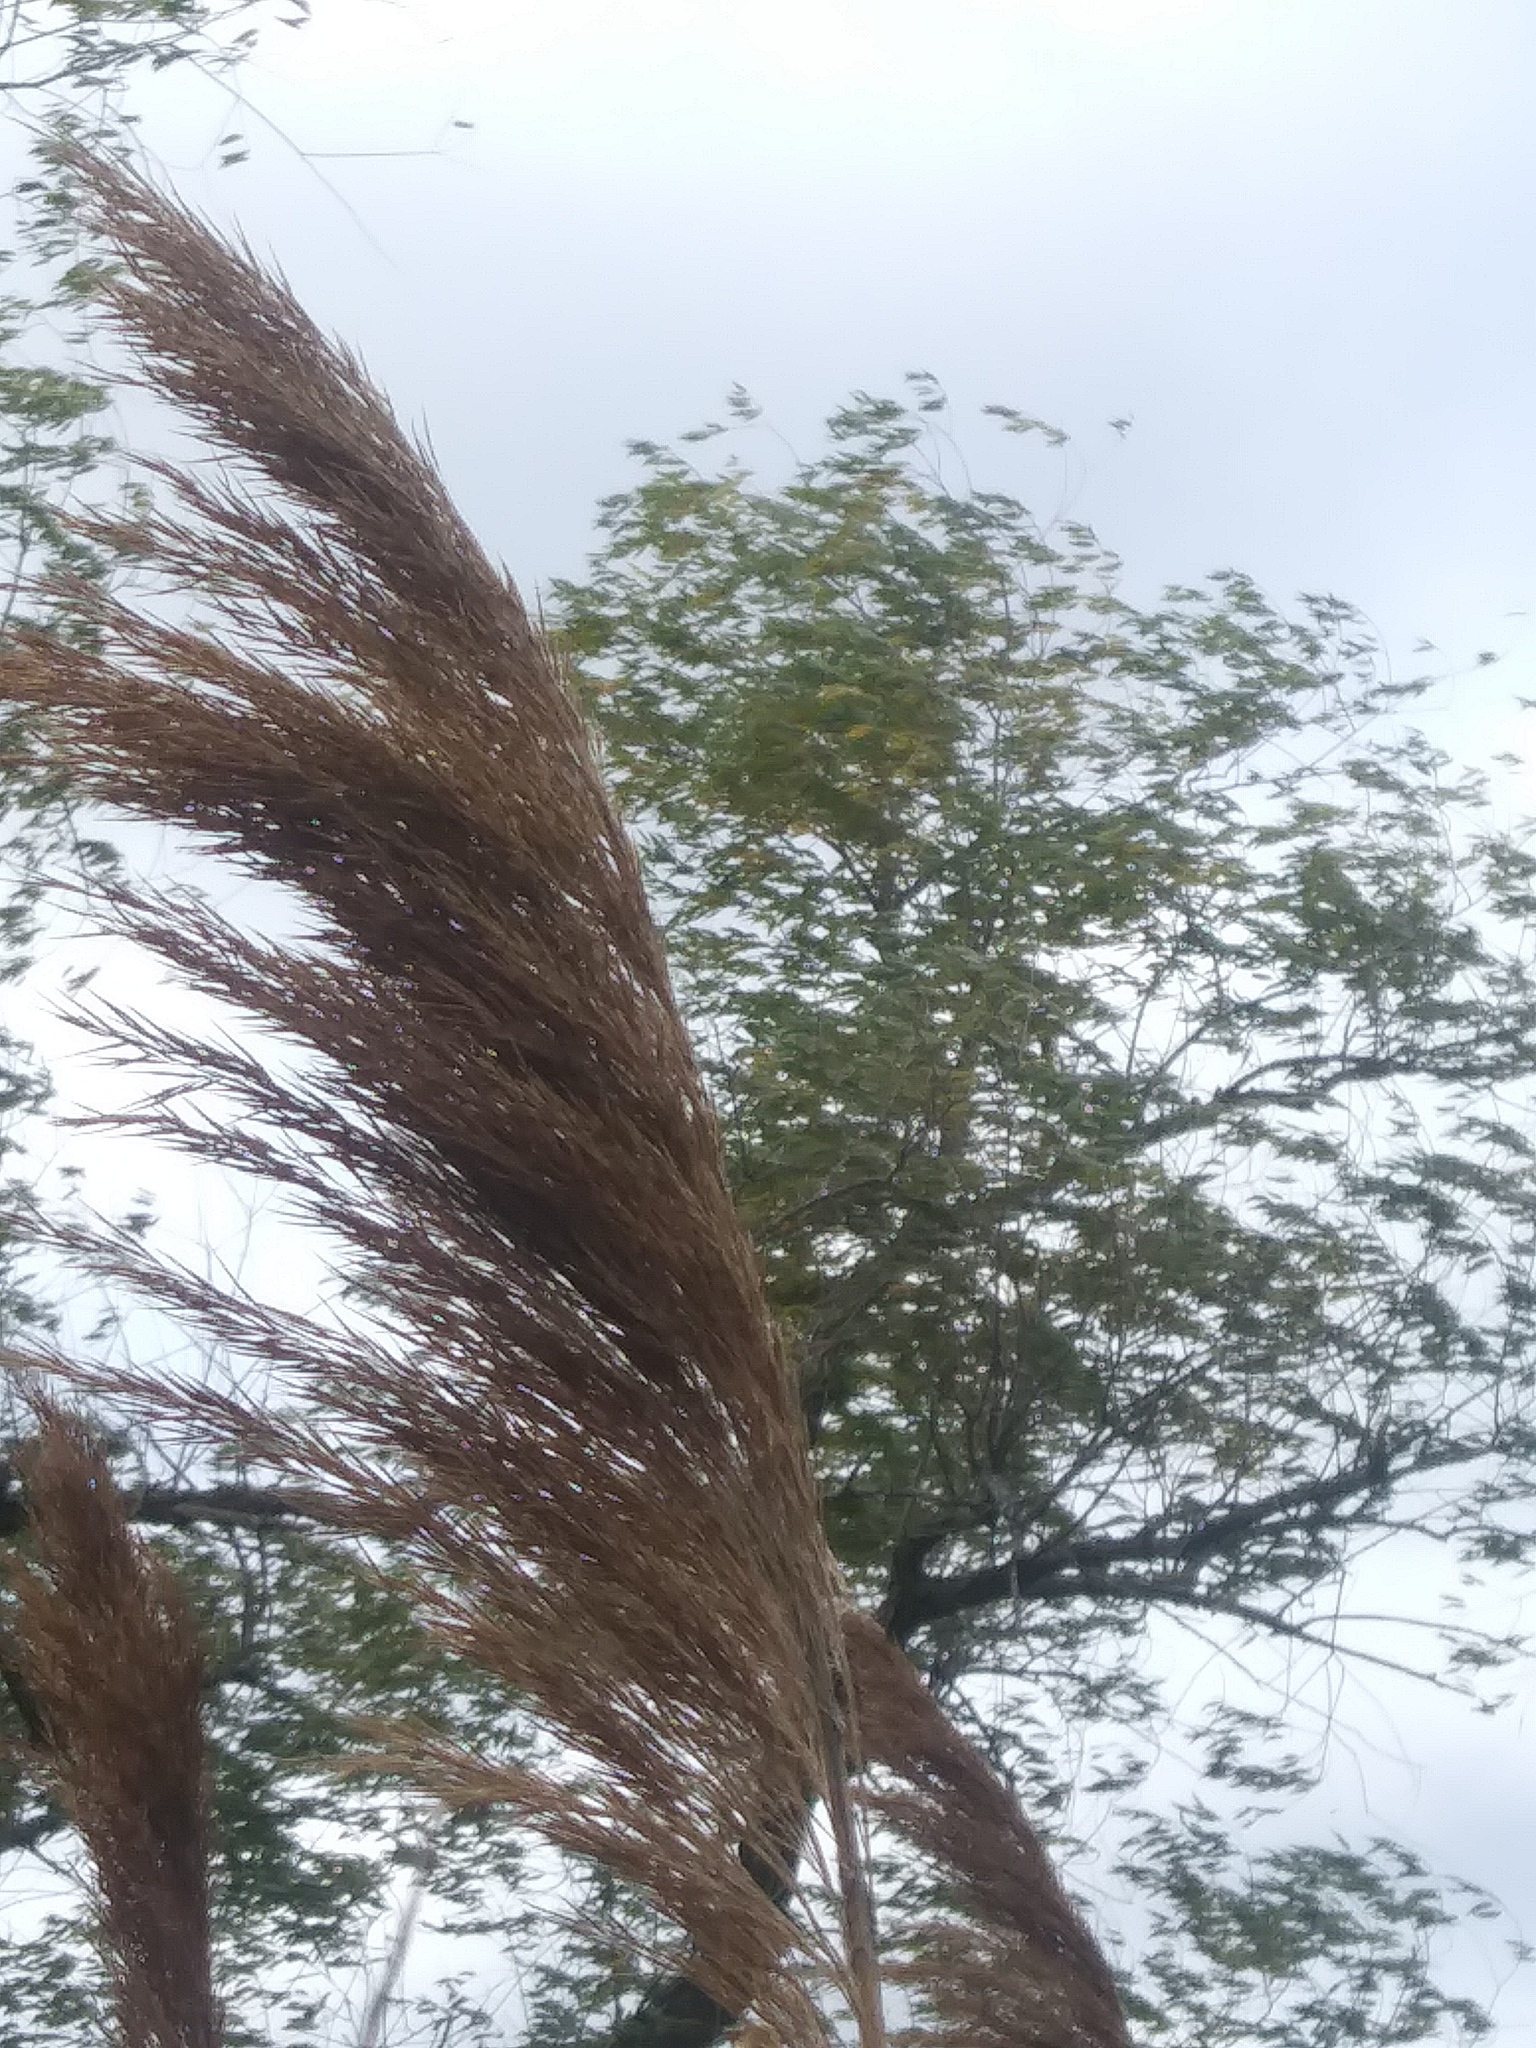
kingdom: Plantae
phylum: Tracheophyta
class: Liliopsida
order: Poales
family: Poaceae
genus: Phragmites
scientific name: Phragmites australis
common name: Common reed
